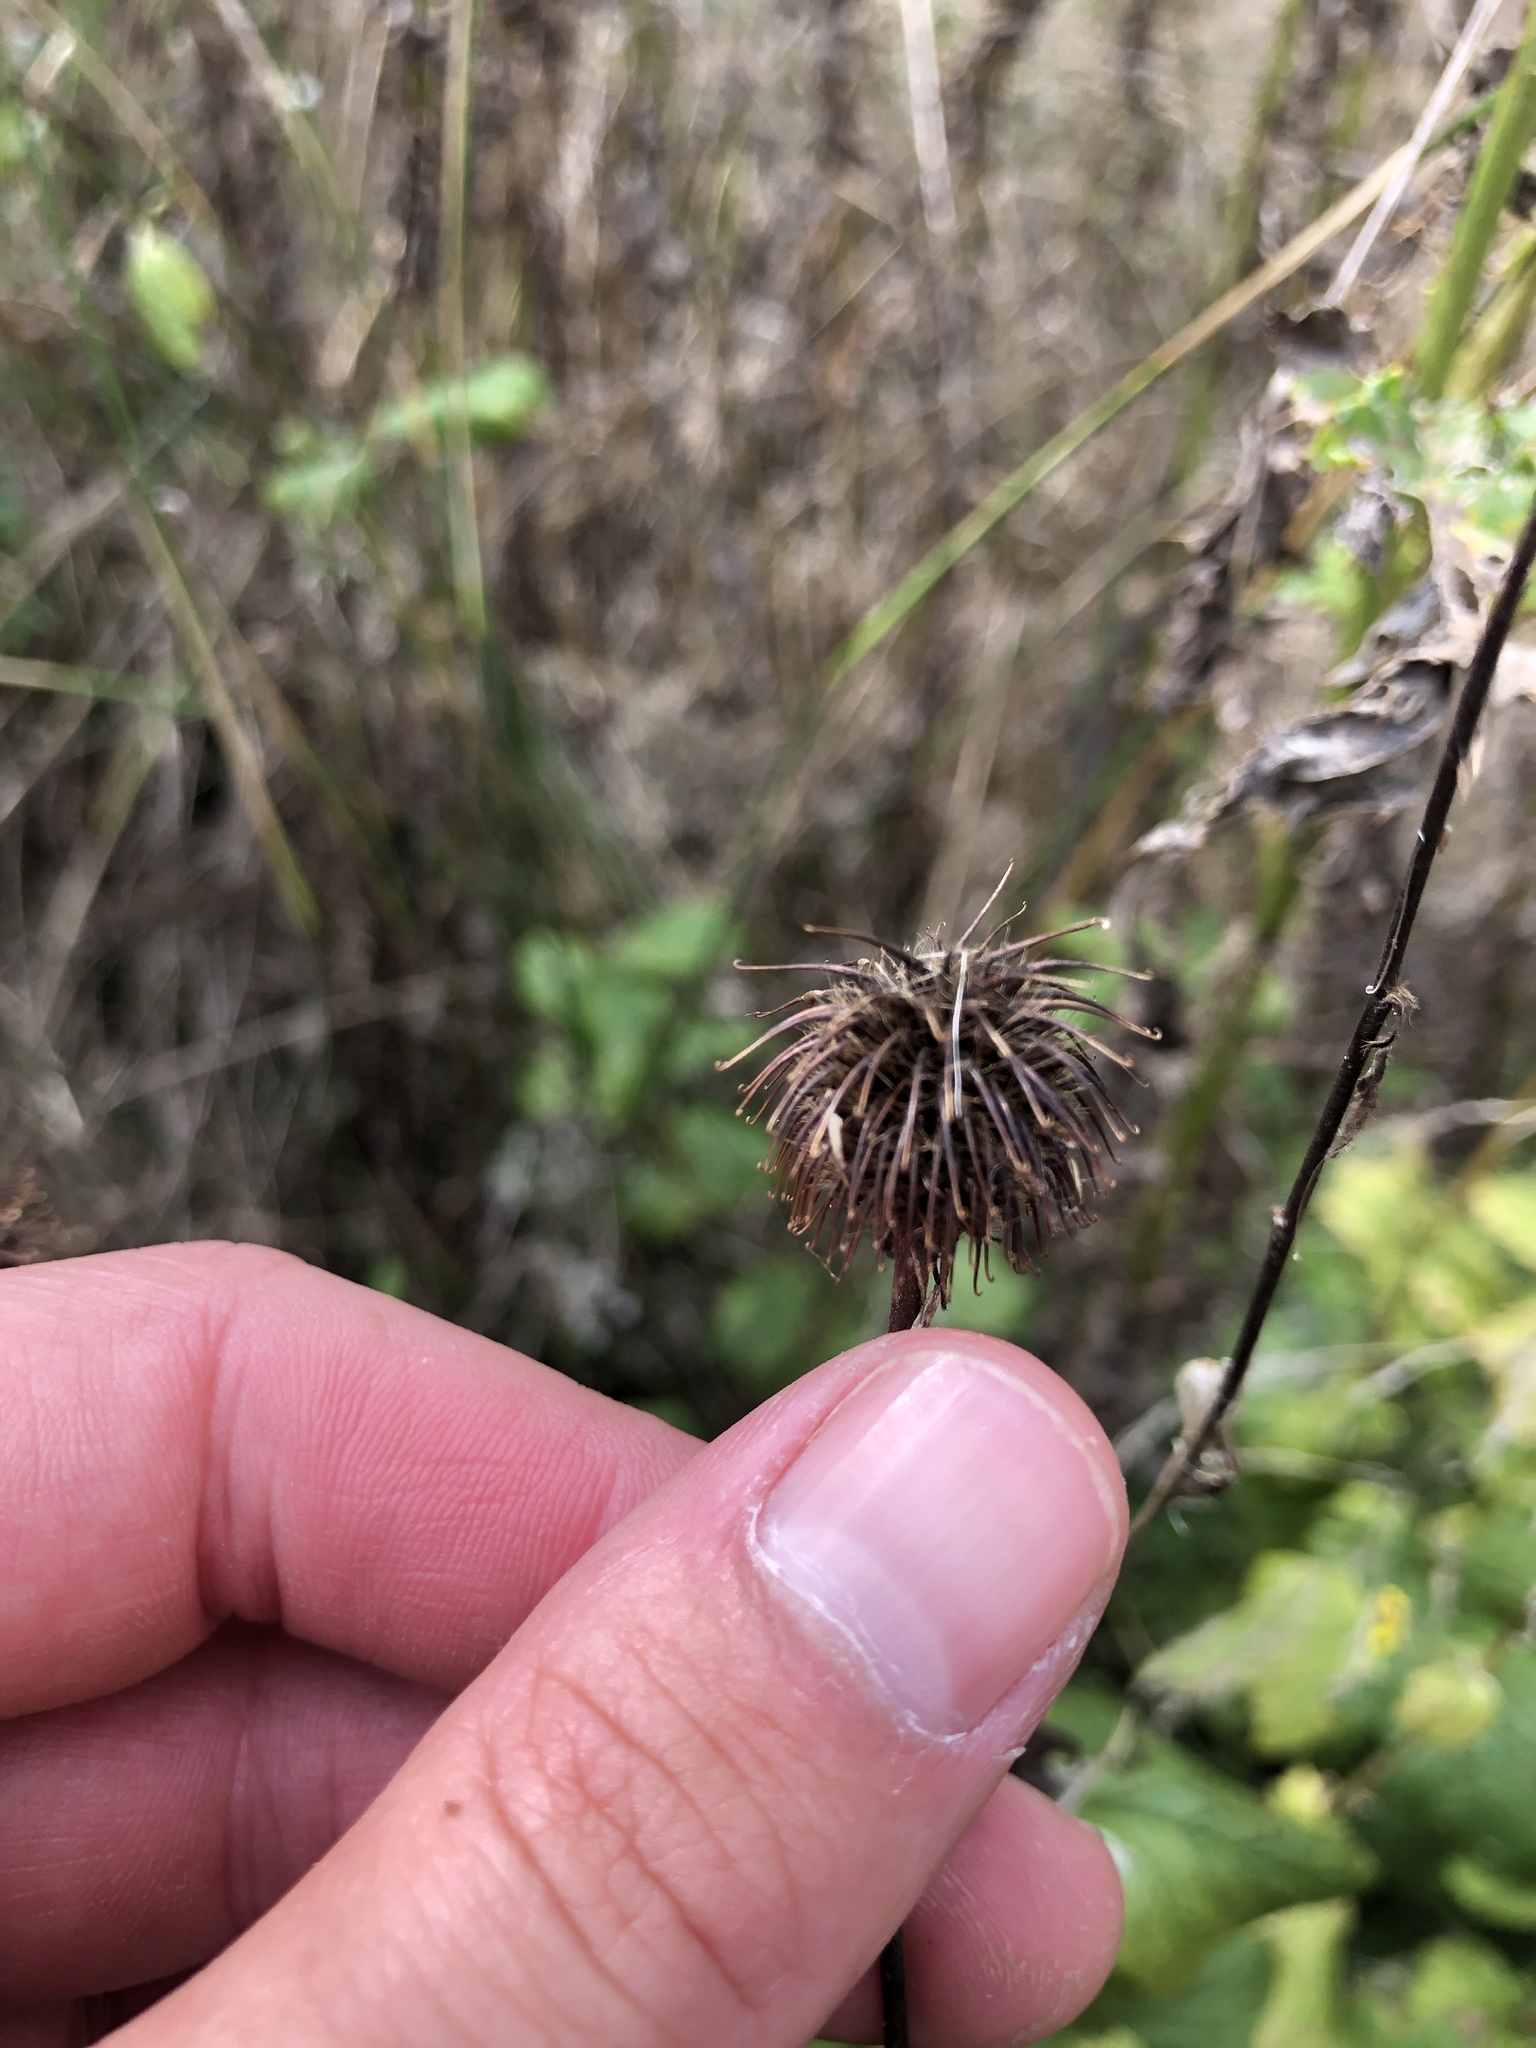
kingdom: Plantae
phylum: Tracheophyta
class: Magnoliopsida
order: Rosales
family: Rosaceae
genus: Geum
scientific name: Geum urbanum
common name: Wood avens
